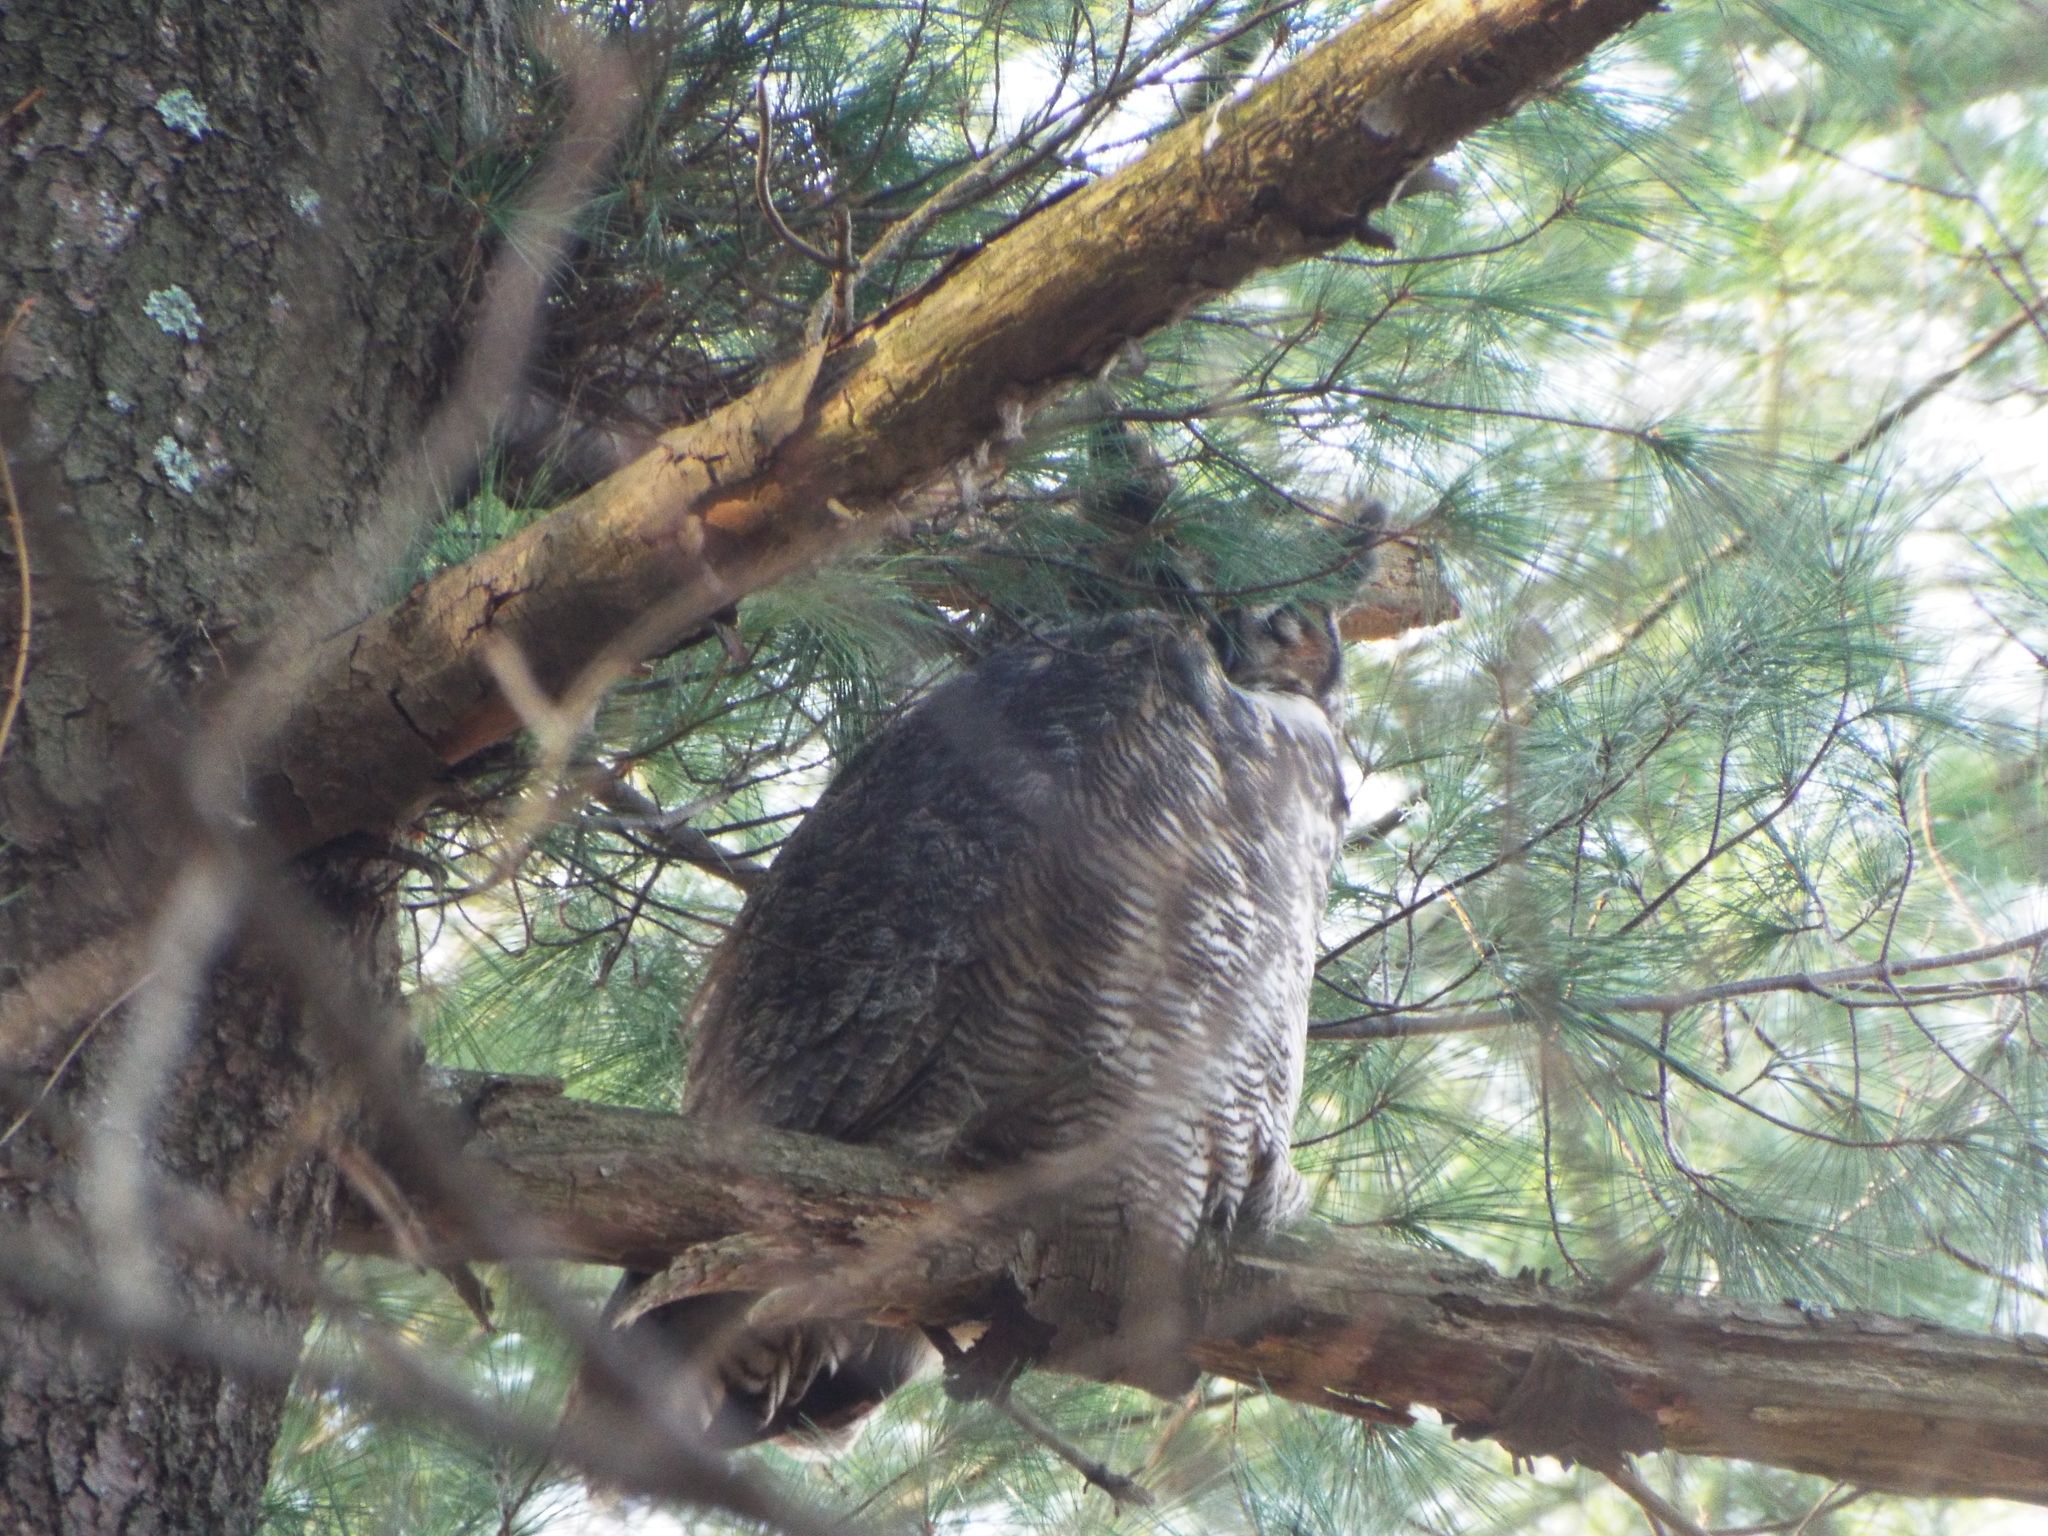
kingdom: Animalia
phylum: Chordata
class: Aves
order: Strigiformes
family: Strigidae
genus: Bubo
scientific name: Bubo virginianus
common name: Great horned owl
